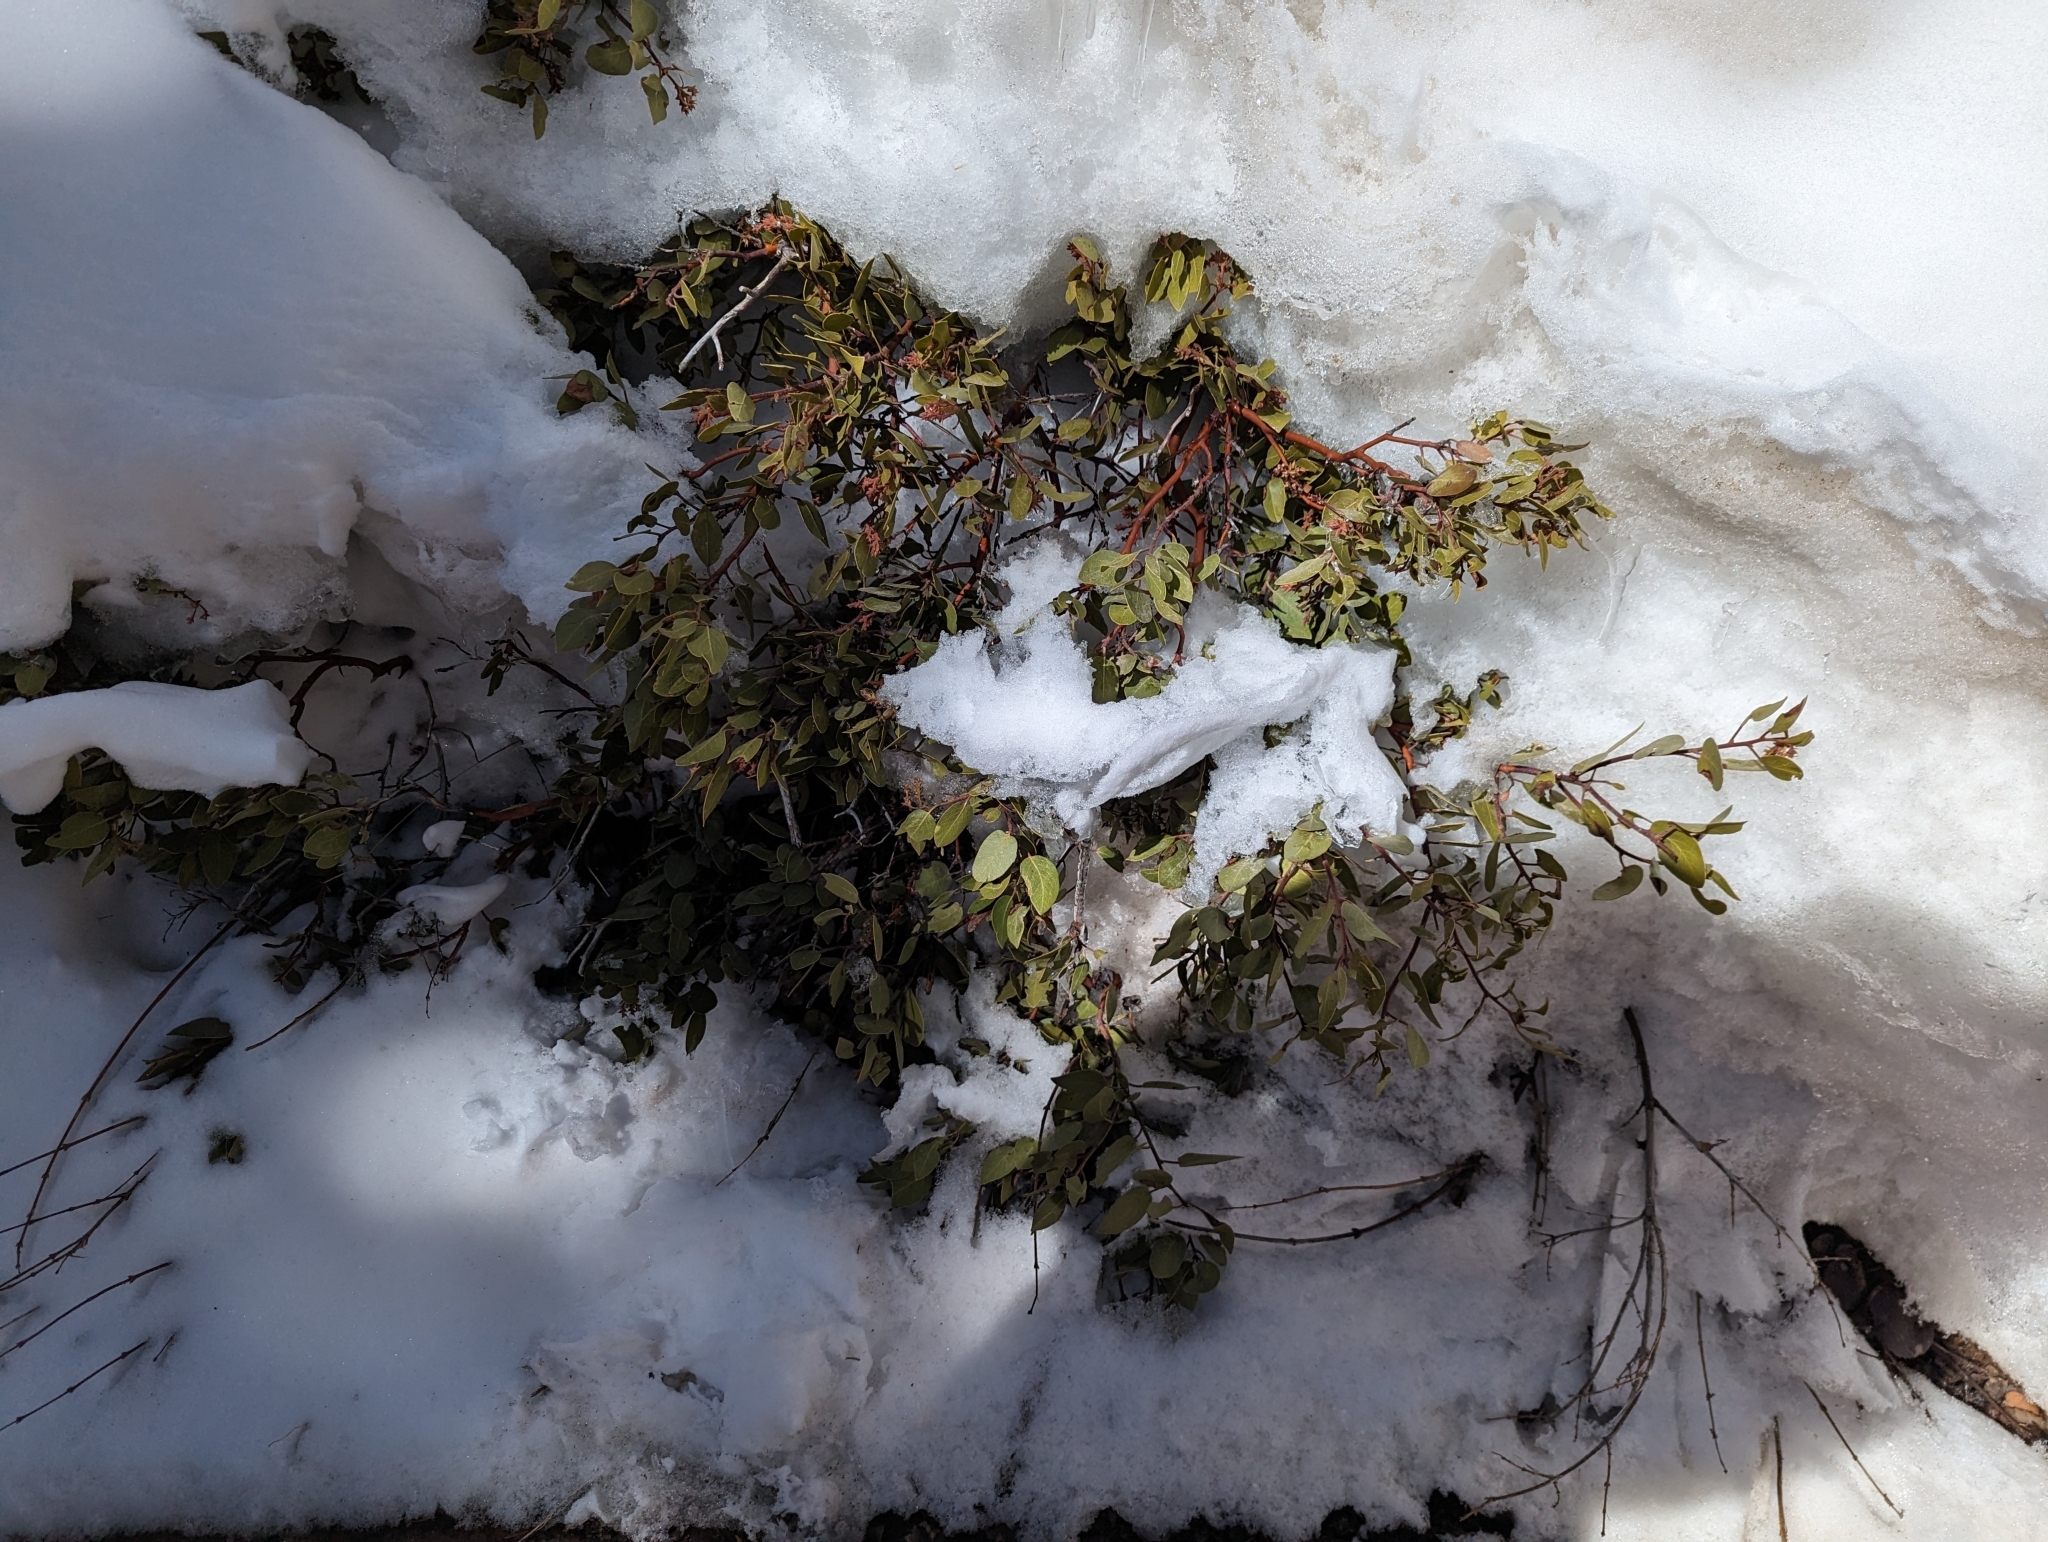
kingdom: Plantae
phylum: Tracheophyta
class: Magnoliopsida
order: Ericales
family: Ericaceae
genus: Arctostaphylos
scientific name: Arctostaphylos patula
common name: Green-leaf manzanita
